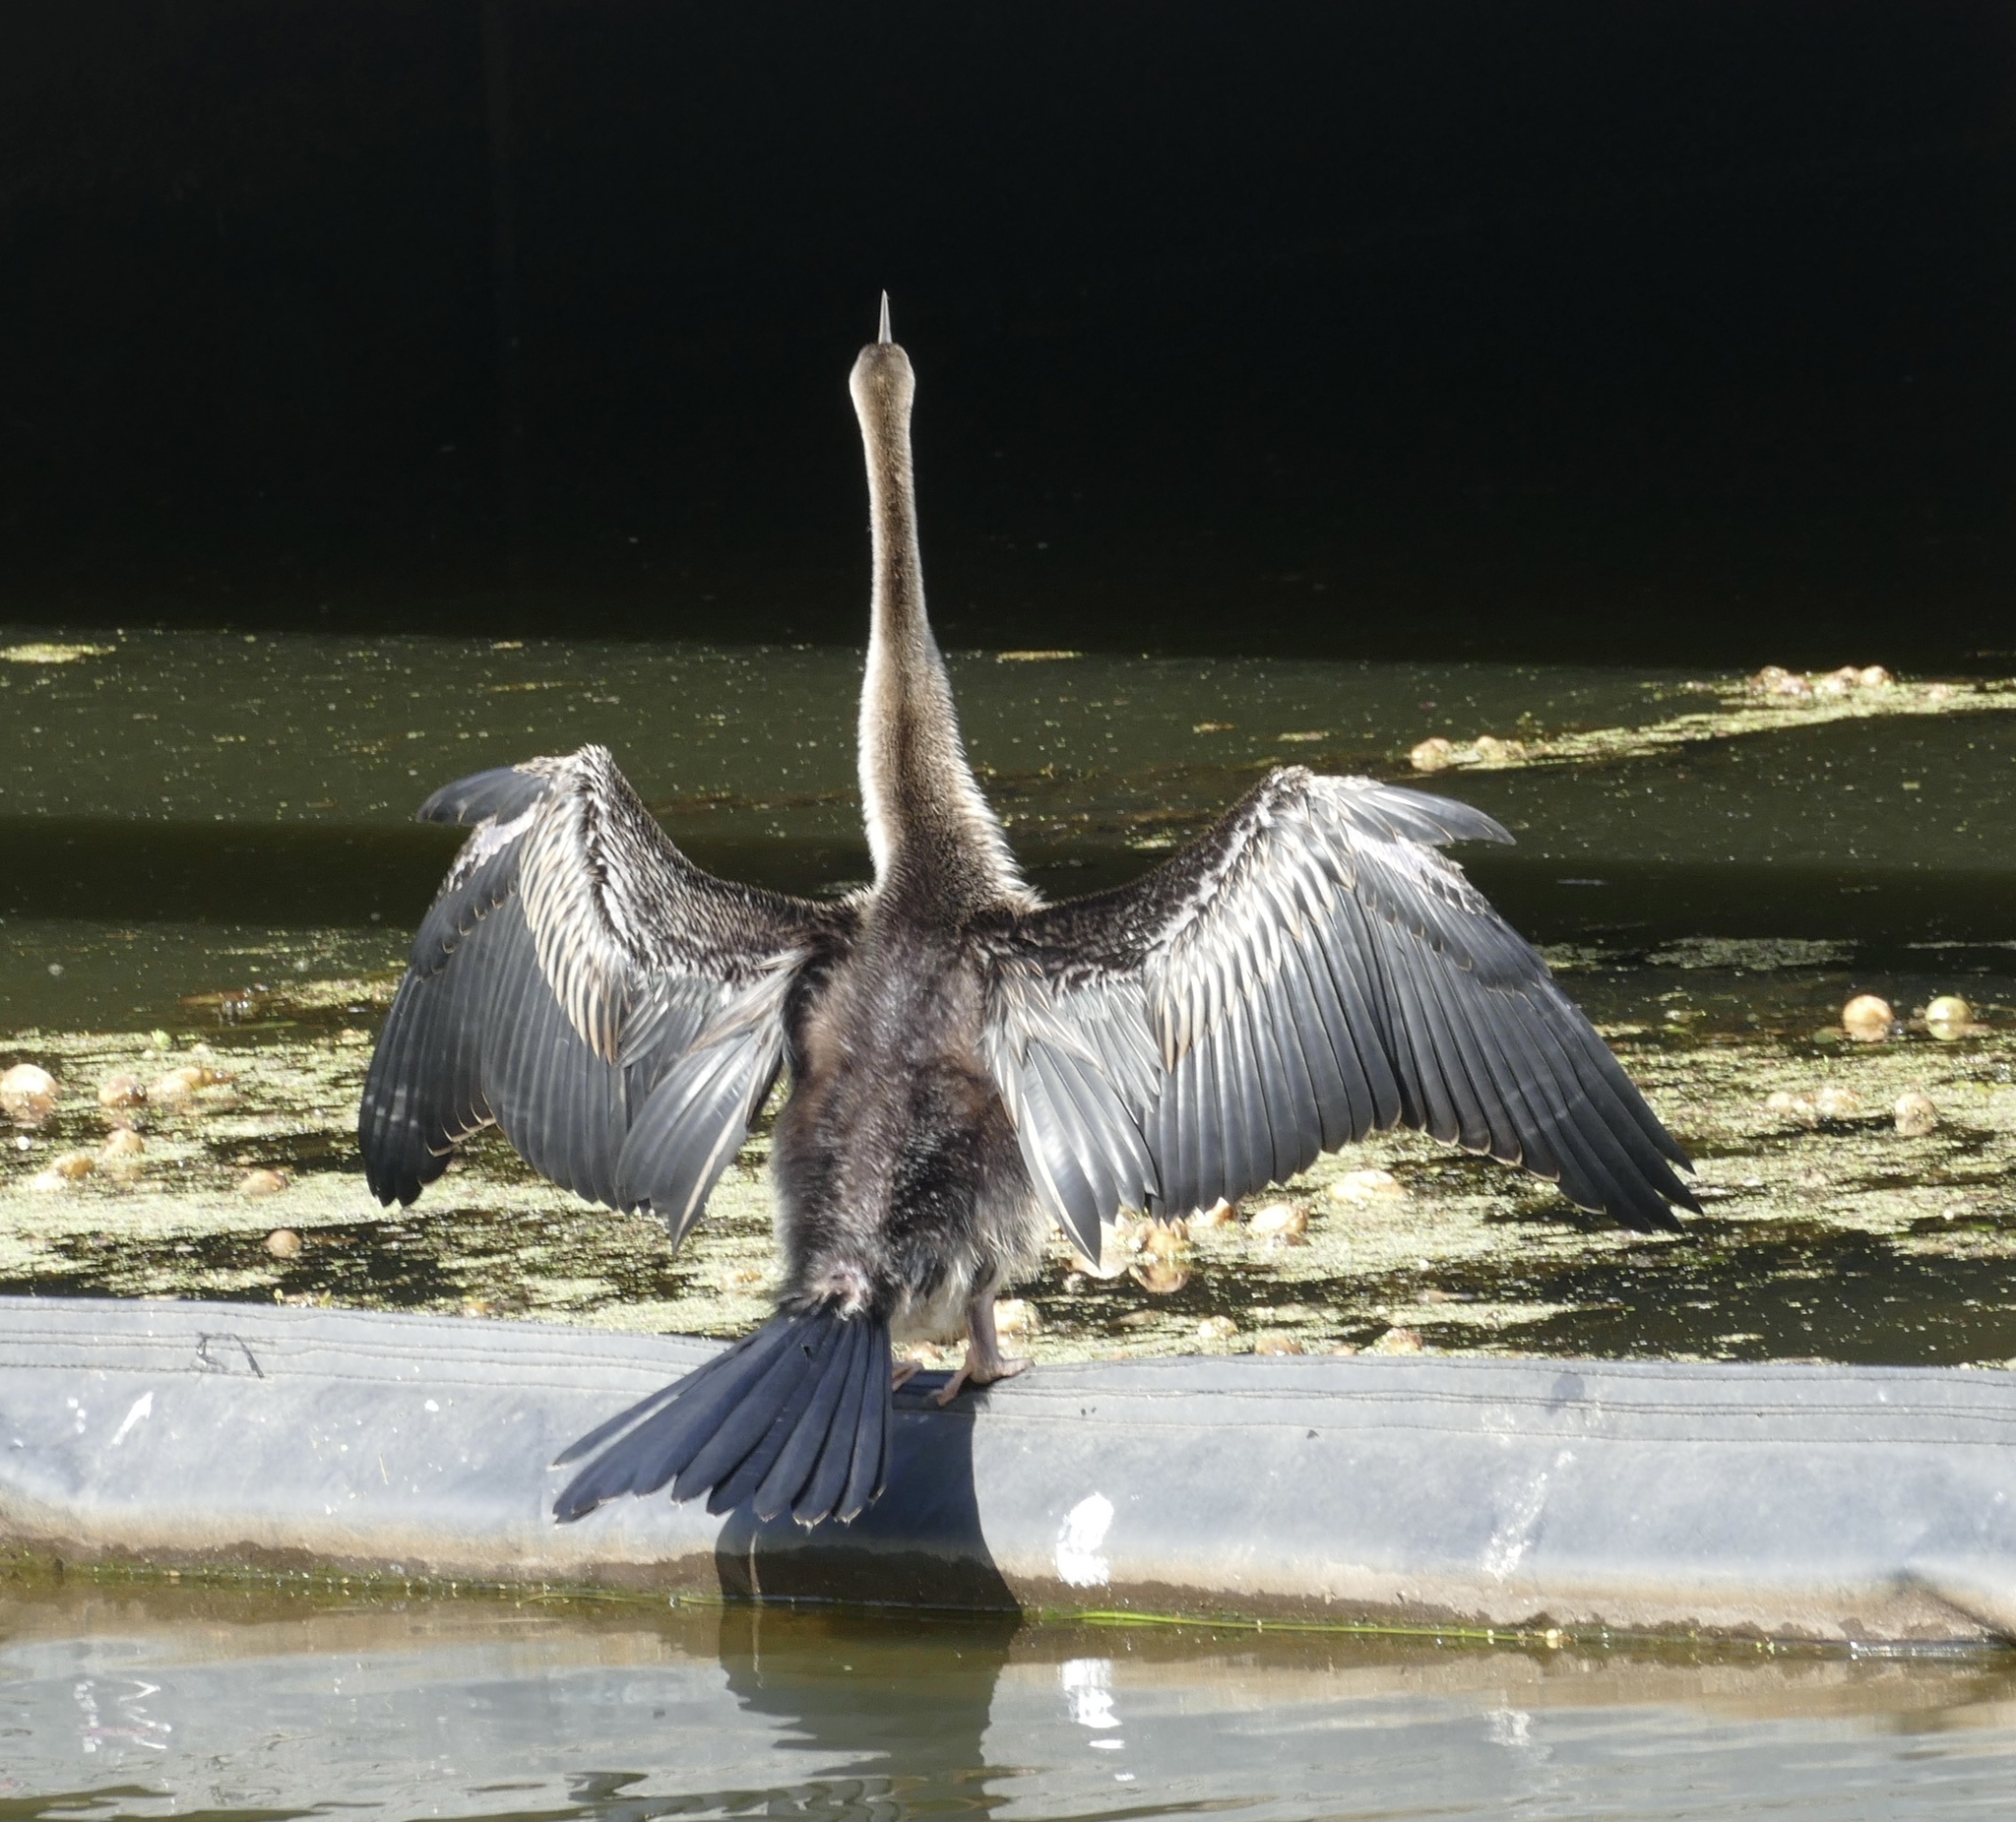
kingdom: Animalia
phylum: Chordata
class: Aves
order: Suliformes
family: Anhingidae
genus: Anhinga
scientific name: Anhinga novaehollandiae
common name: Australasian darter
